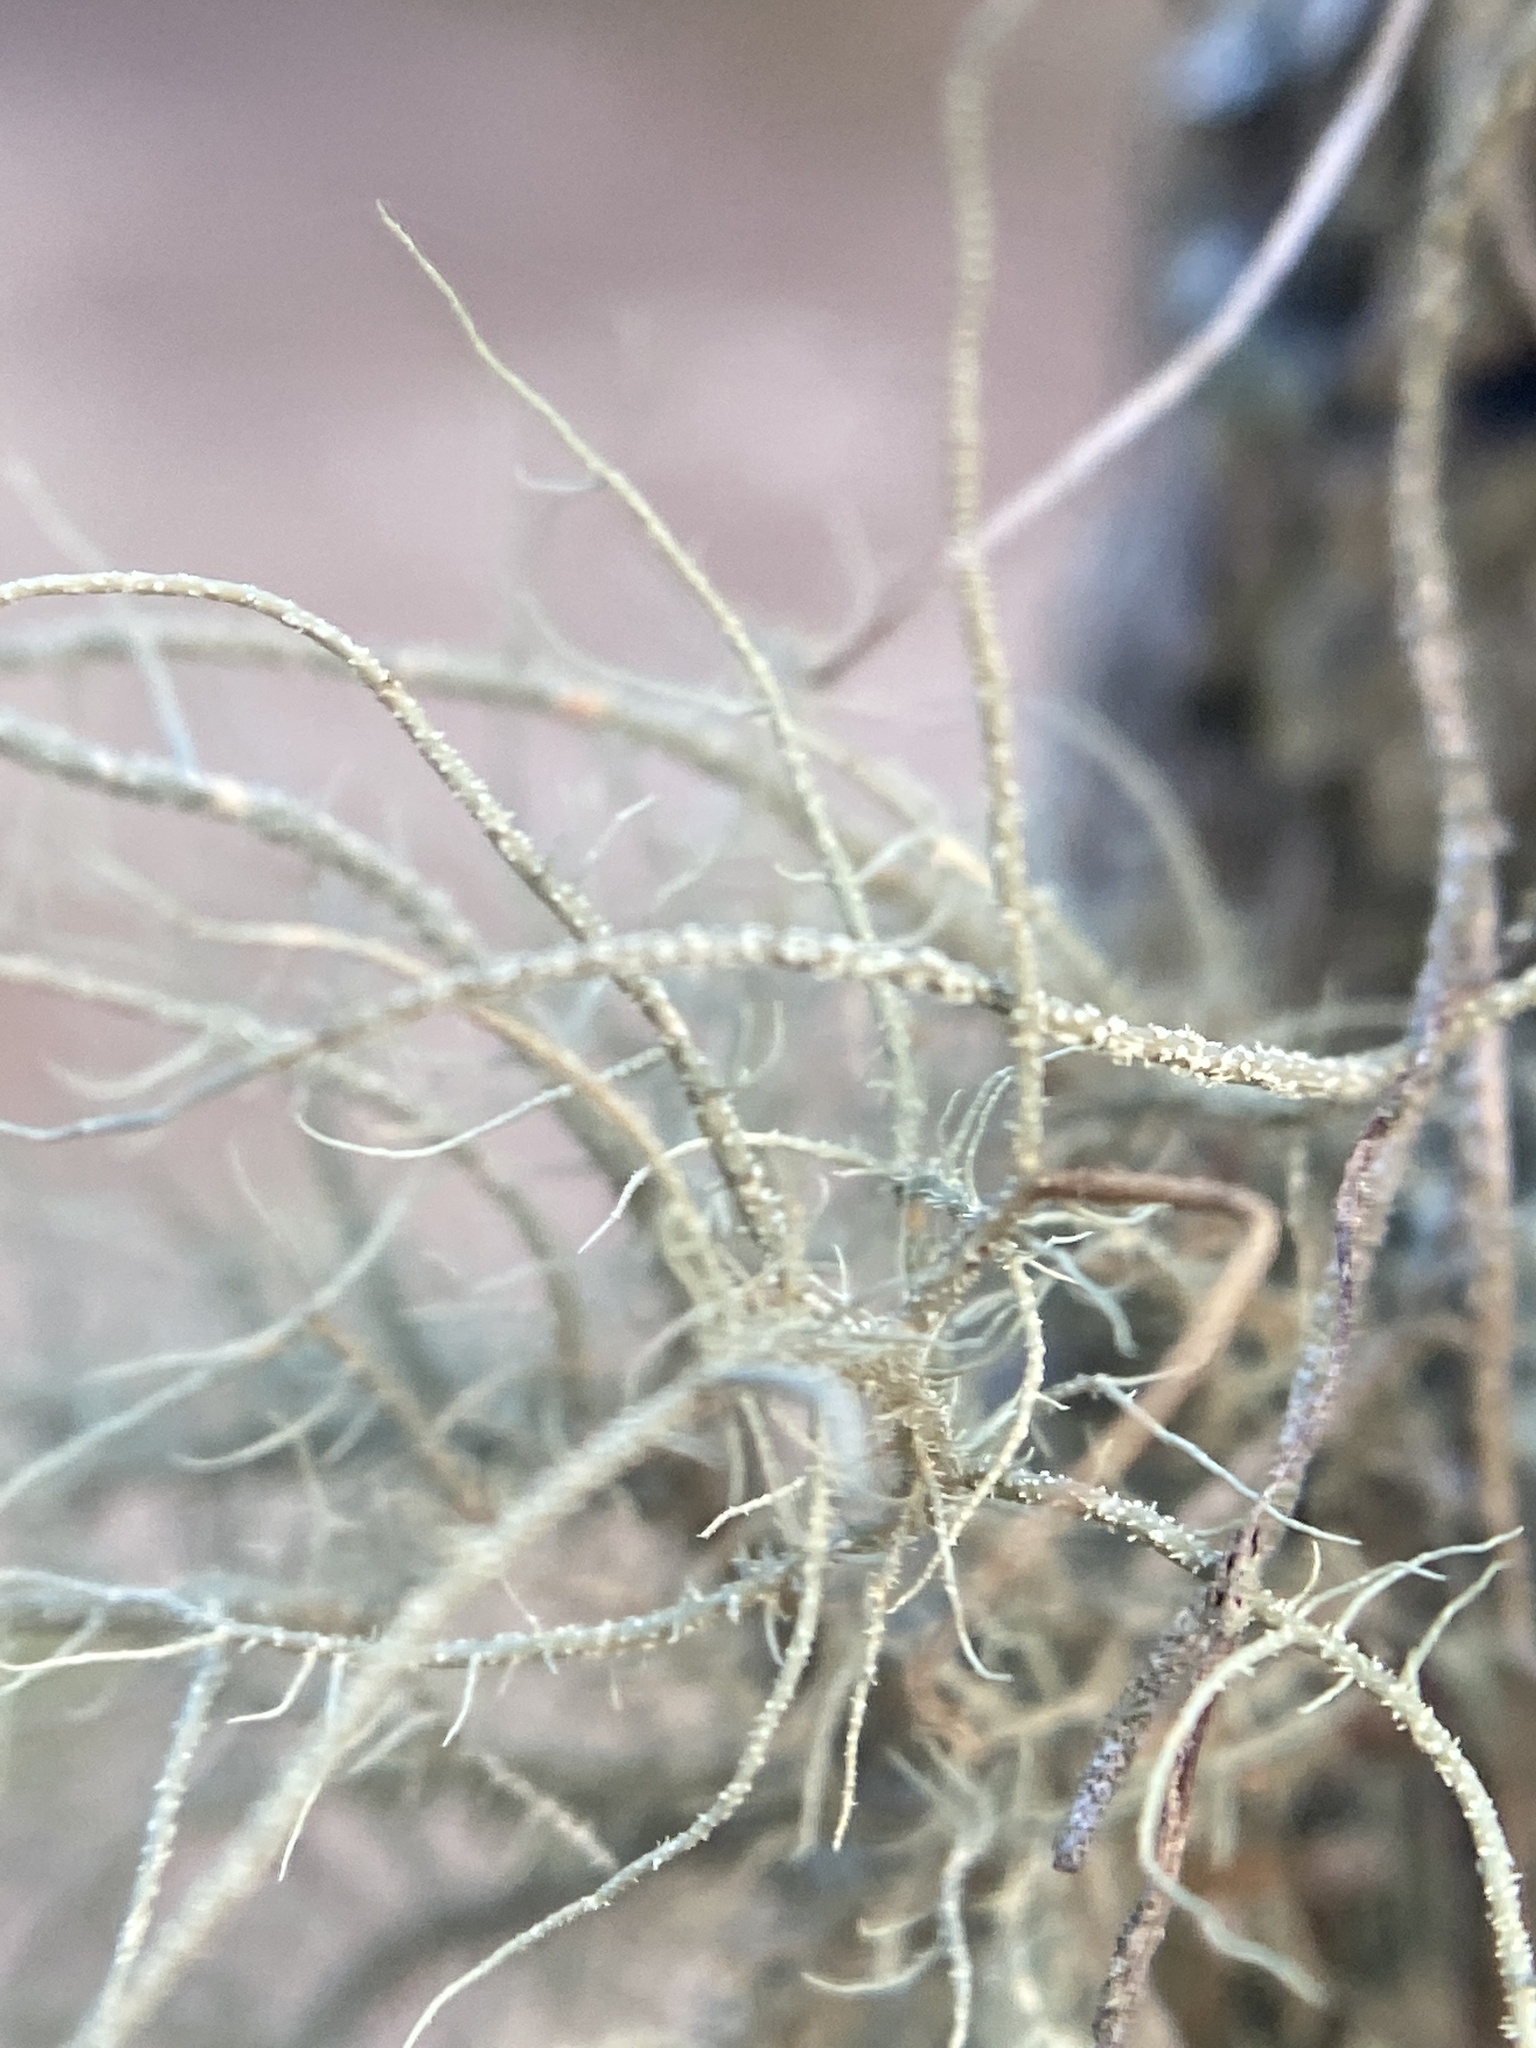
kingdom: Fungi
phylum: Ascomycota
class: Lecanoromycetes
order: Lecanorales
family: Parmeliaceae
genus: Usnea
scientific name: Usnea rubicunda
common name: Red beard lichen
